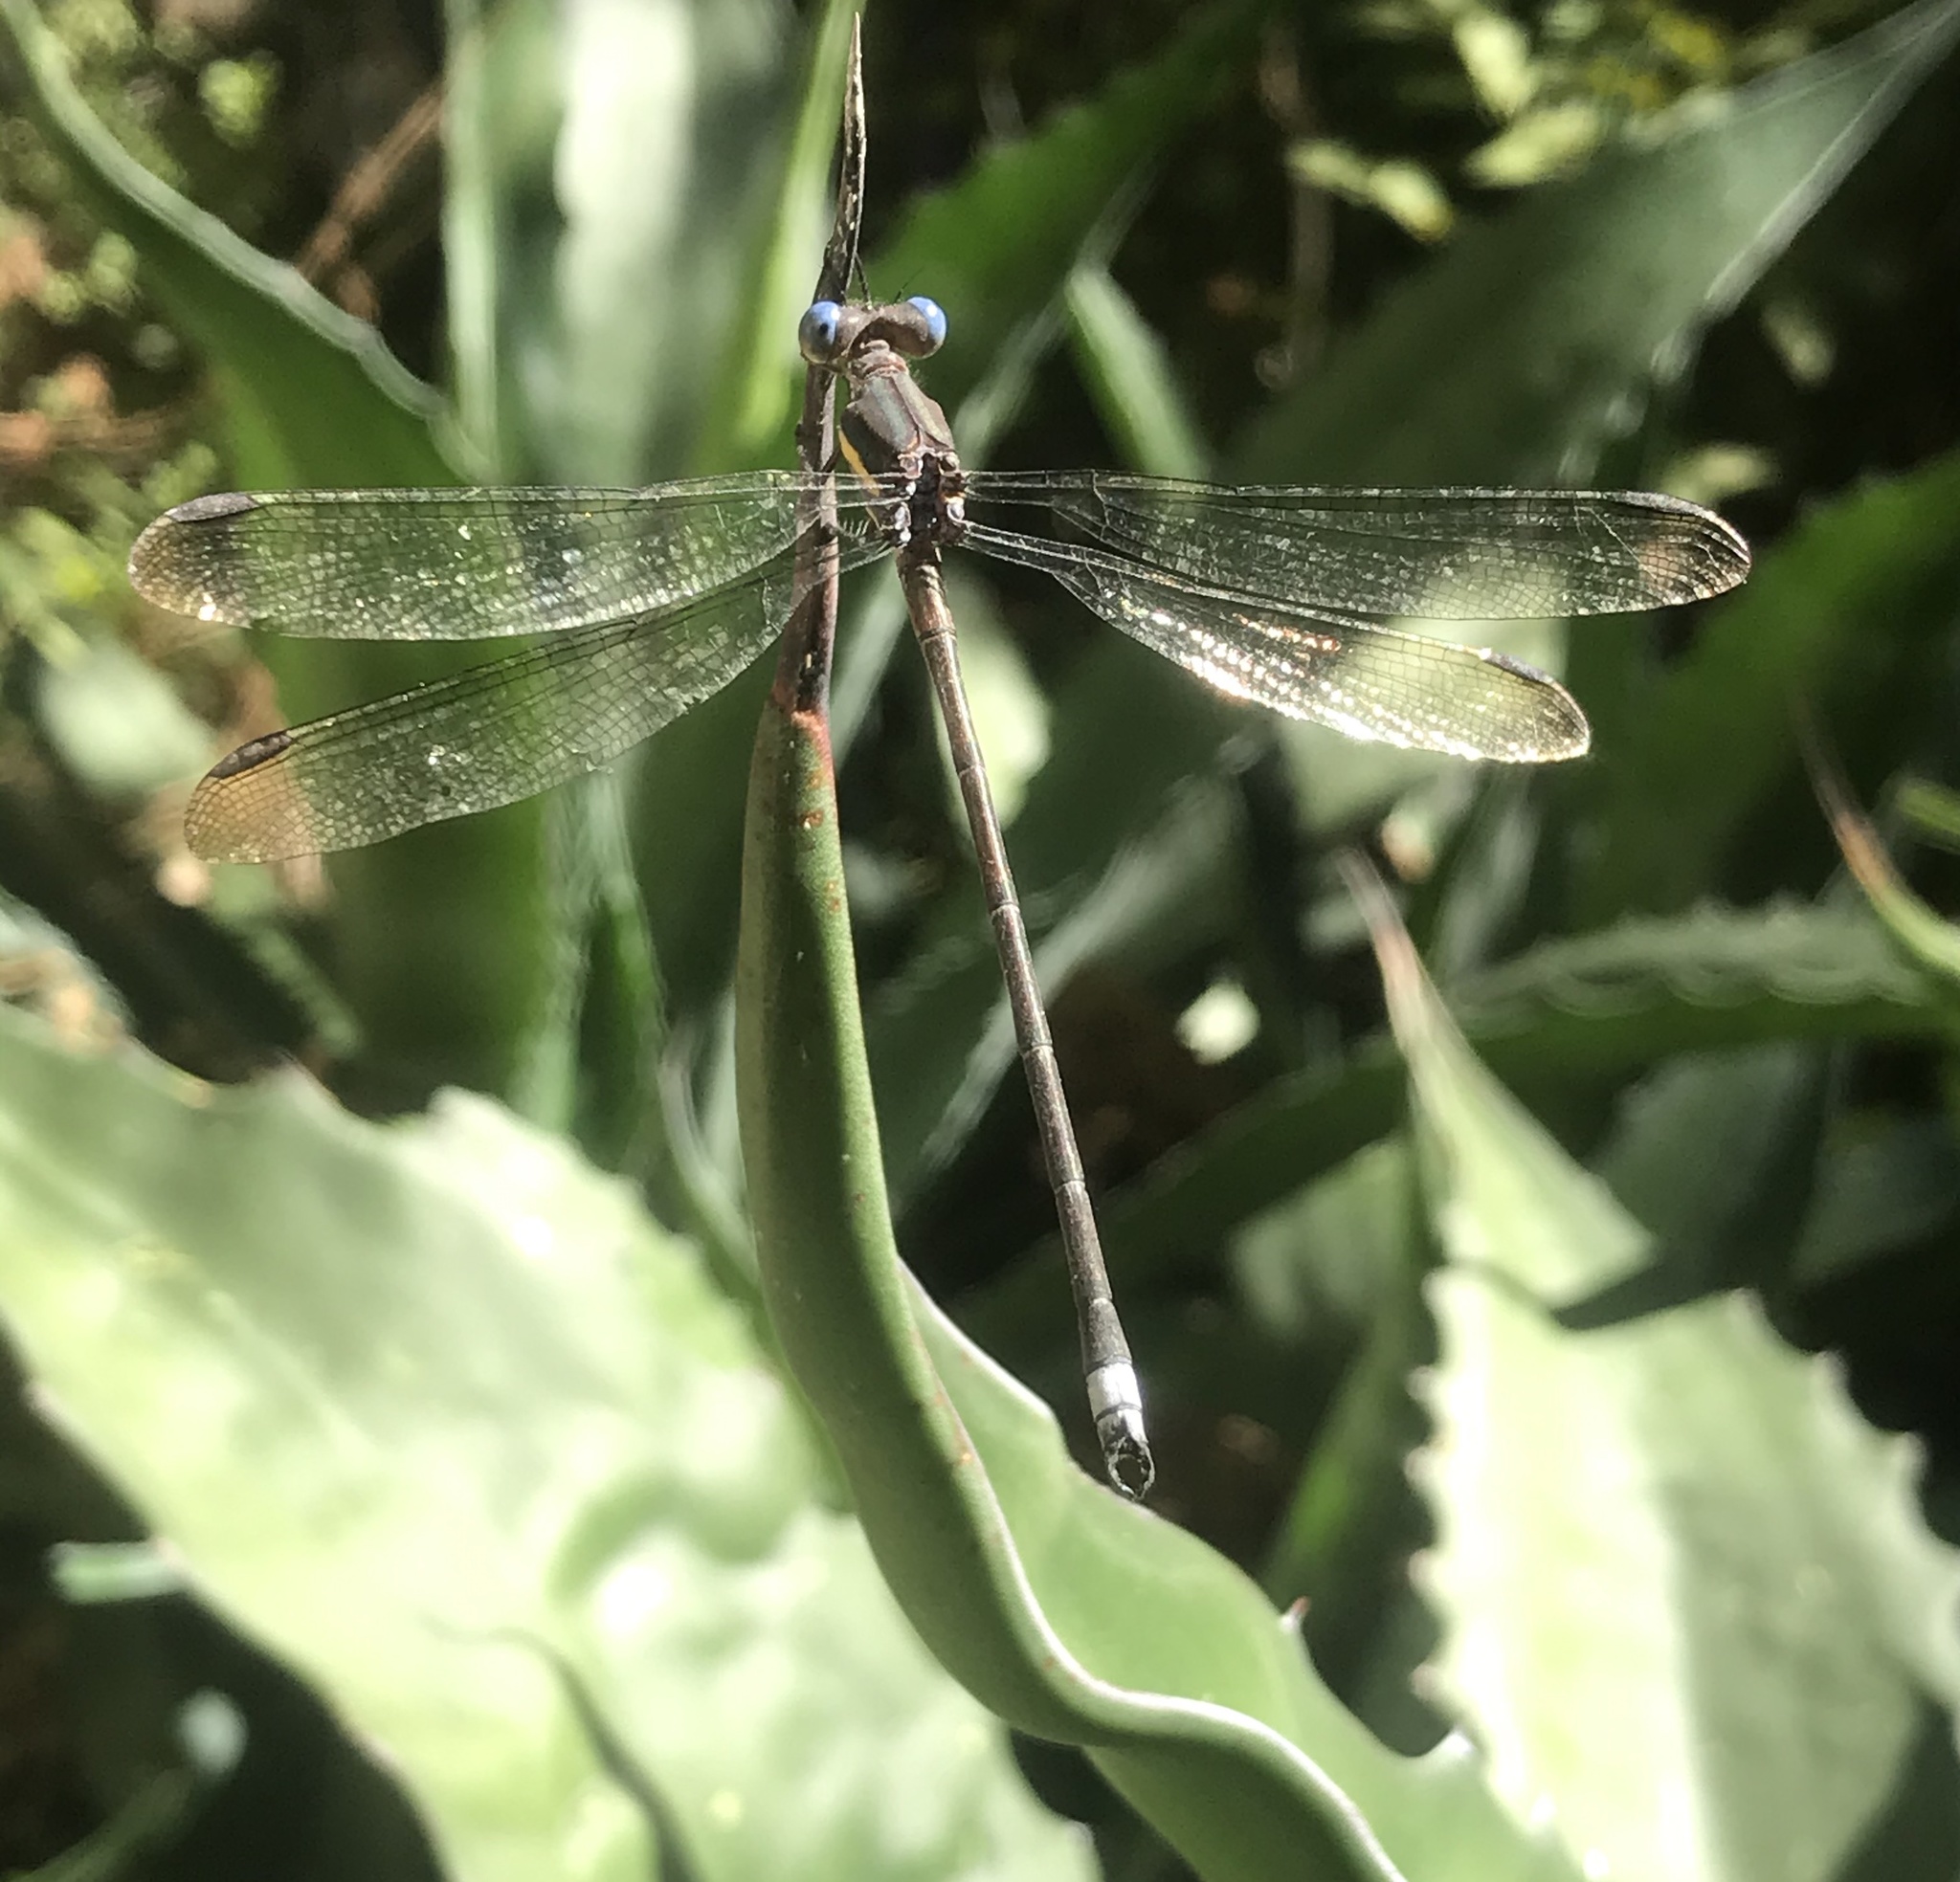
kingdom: Animalia
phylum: Arthropoda
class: Insecta
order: Odonata
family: Lestidae
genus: Archilestes
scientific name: Archilestes grandis
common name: Great spreadwing
